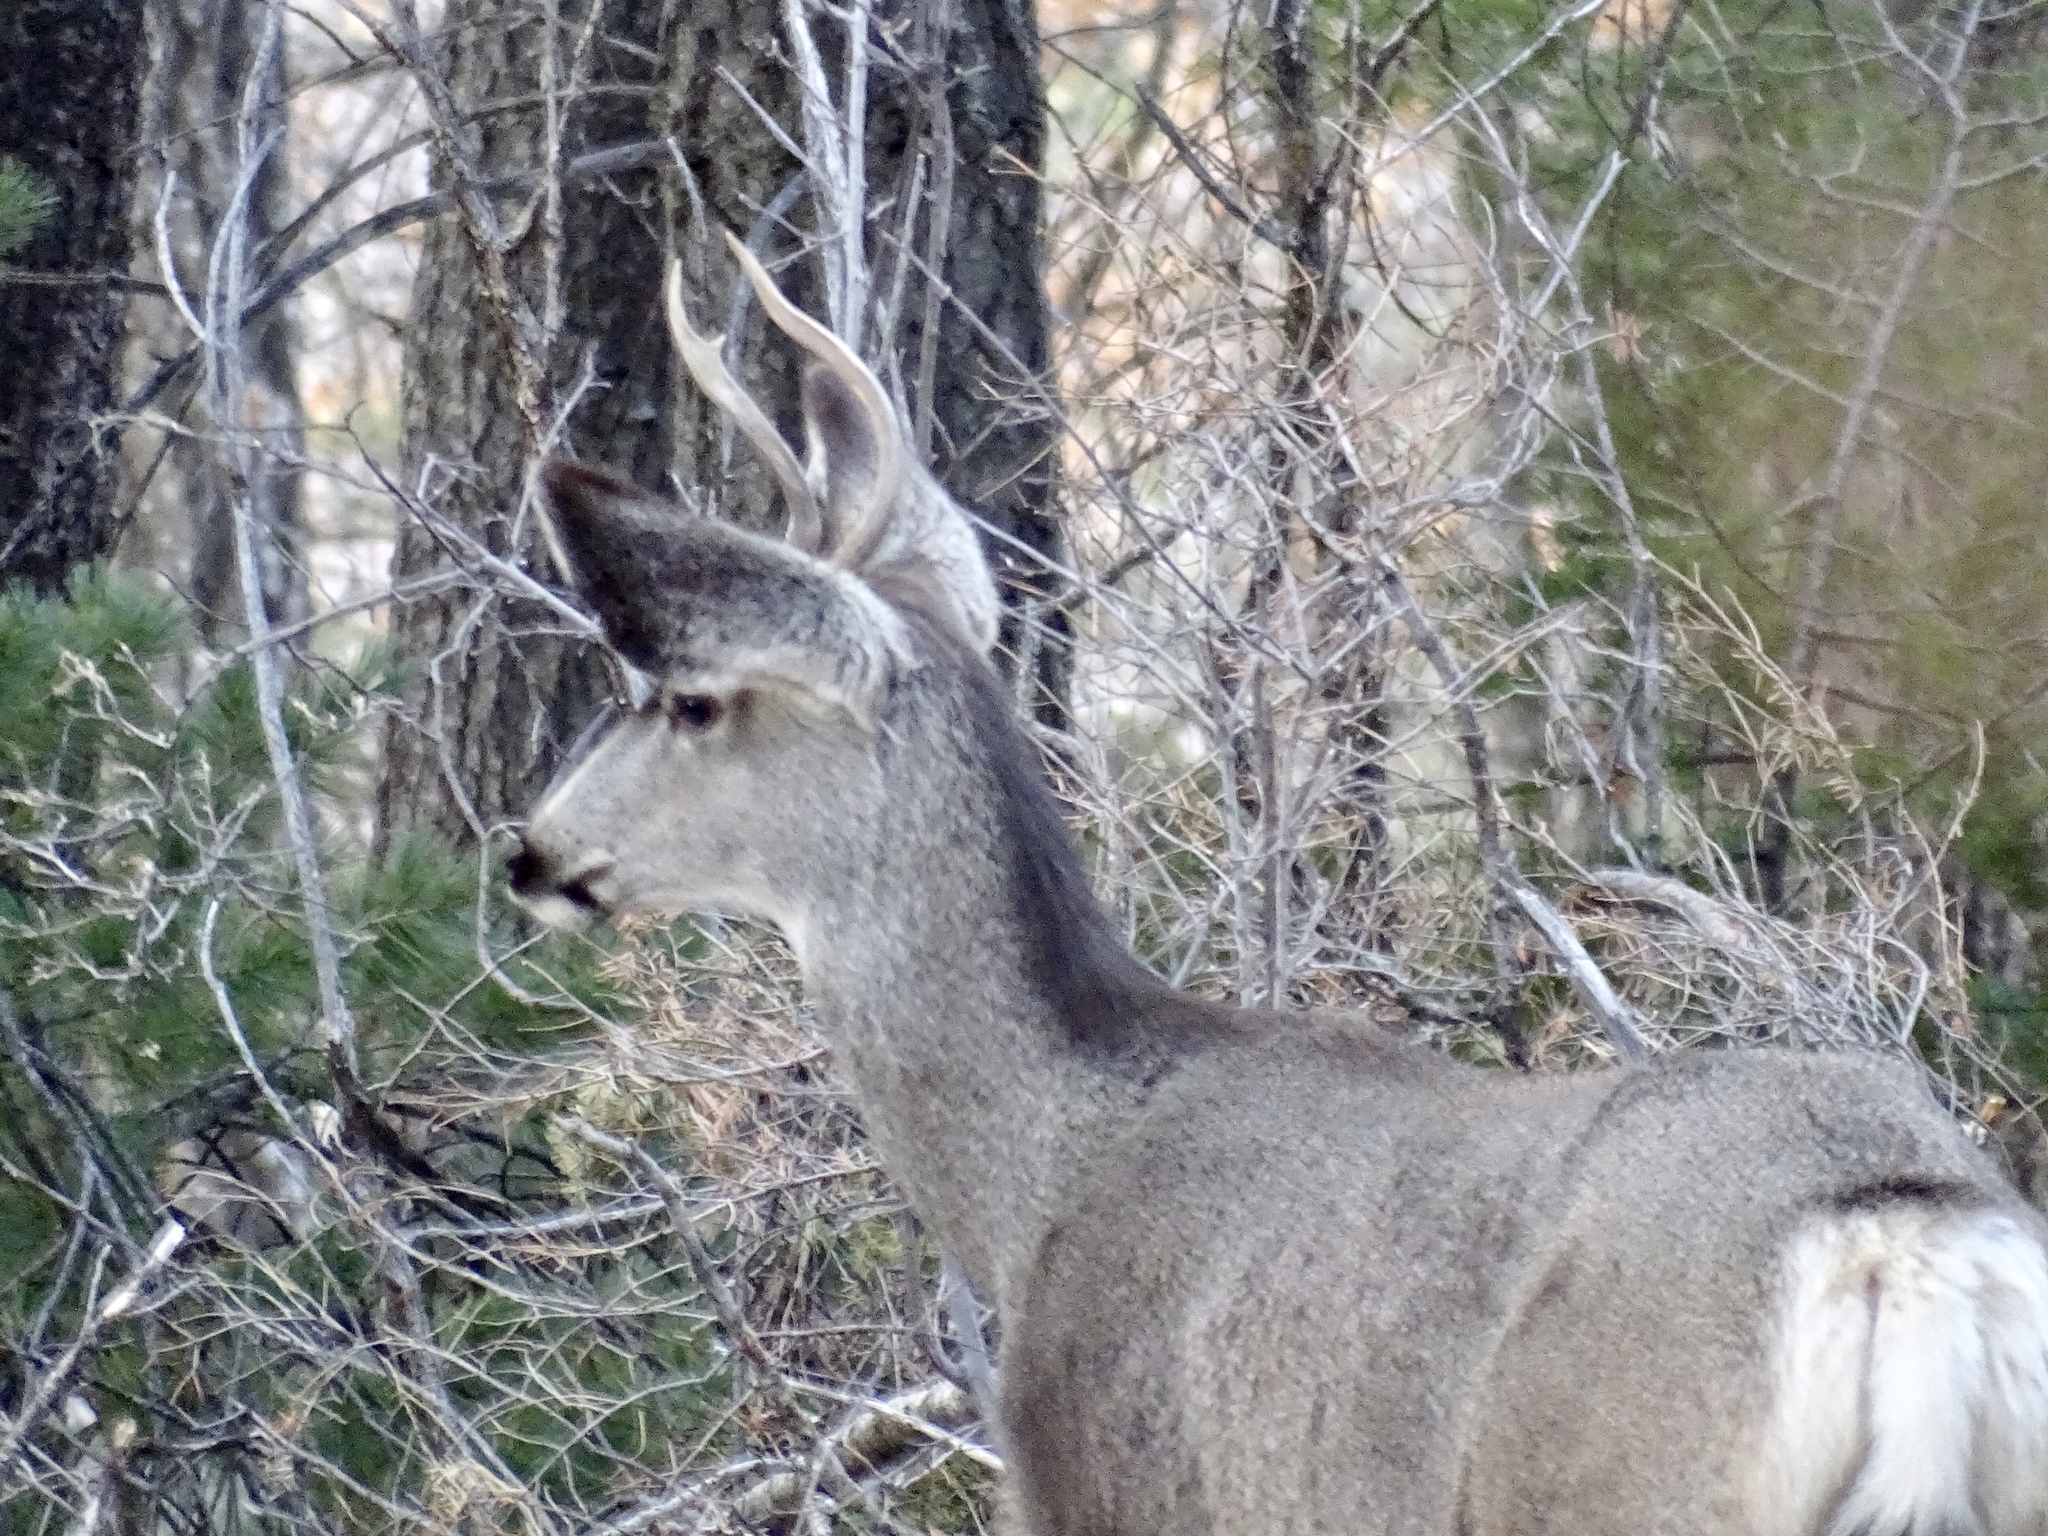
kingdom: Animalia
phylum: Chordata
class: Mammalia
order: Artiodactyla
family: Cervidae
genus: Odocoileus
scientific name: Odocoileus hemionus
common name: Mule deer
